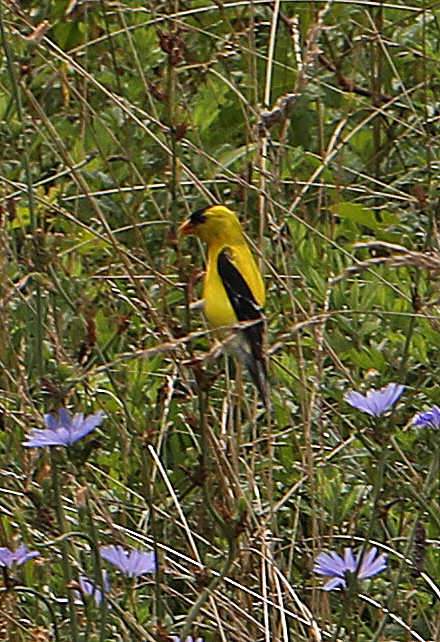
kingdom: Animalia
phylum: Chordata
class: Aves
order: Passeriformes
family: Fringillidae
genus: Spinus
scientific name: Spinus tristis
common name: American goldfinch
